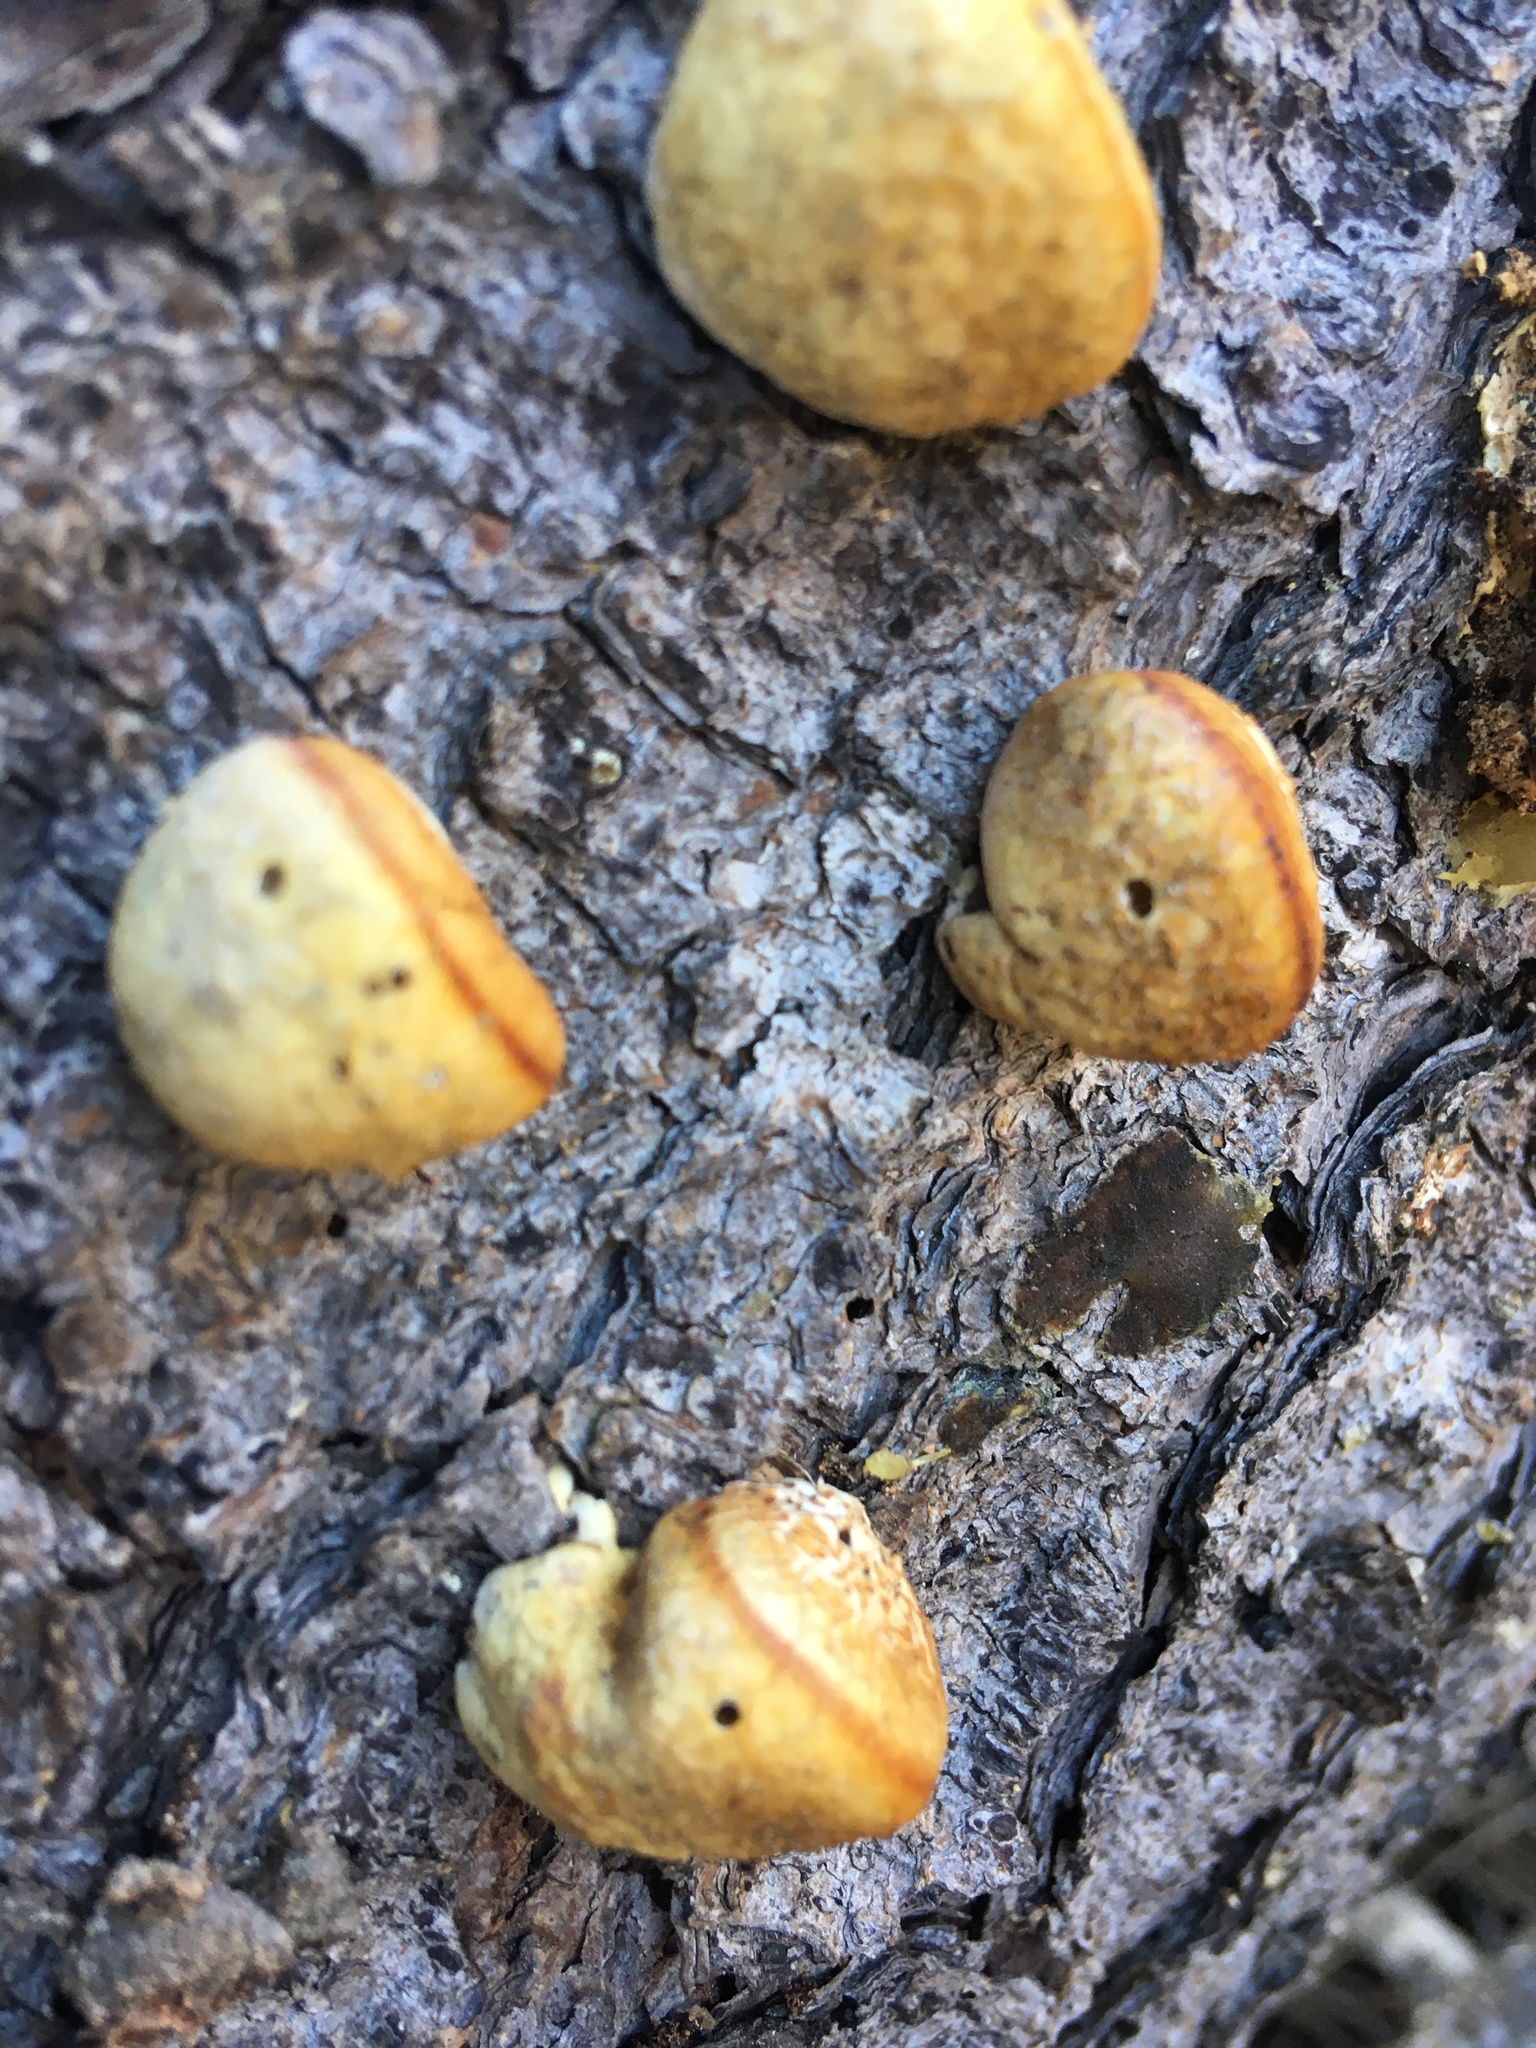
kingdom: Fungi
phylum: Basidiomycota
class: Agaricomycetes
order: Polyporales
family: Polyporaceae
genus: Cryptoporus
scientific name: Cryptoporus volvatus
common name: Veiled polypore
